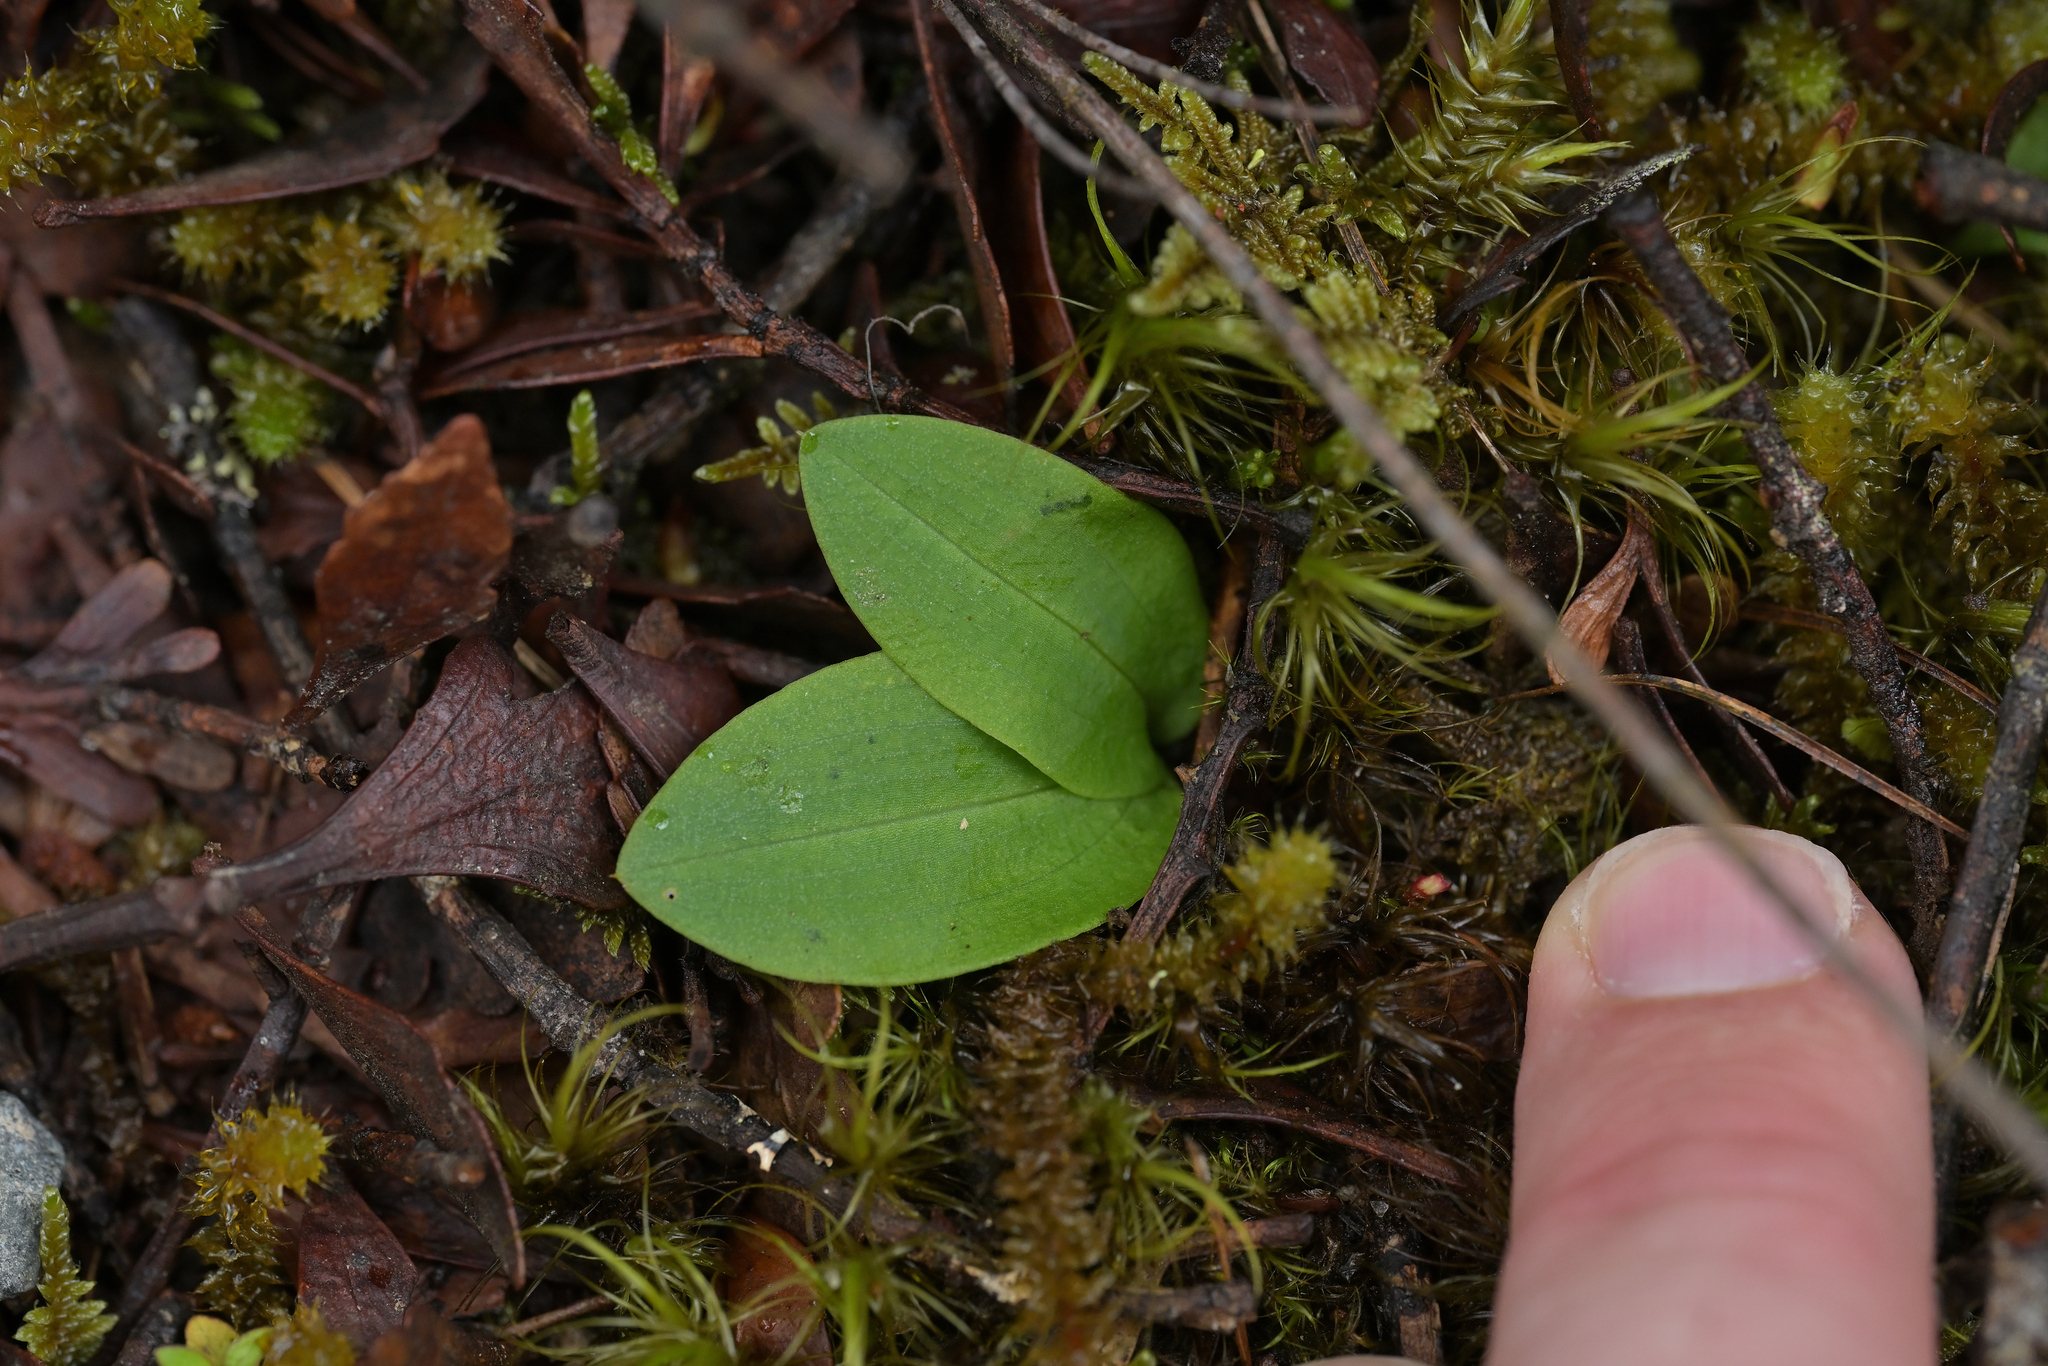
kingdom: Plantae
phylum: Tracheophyta
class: Liliopsida
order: Asparagales
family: Orchidaceae
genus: Chiloglottis
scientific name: Chiloglottis cornuta
